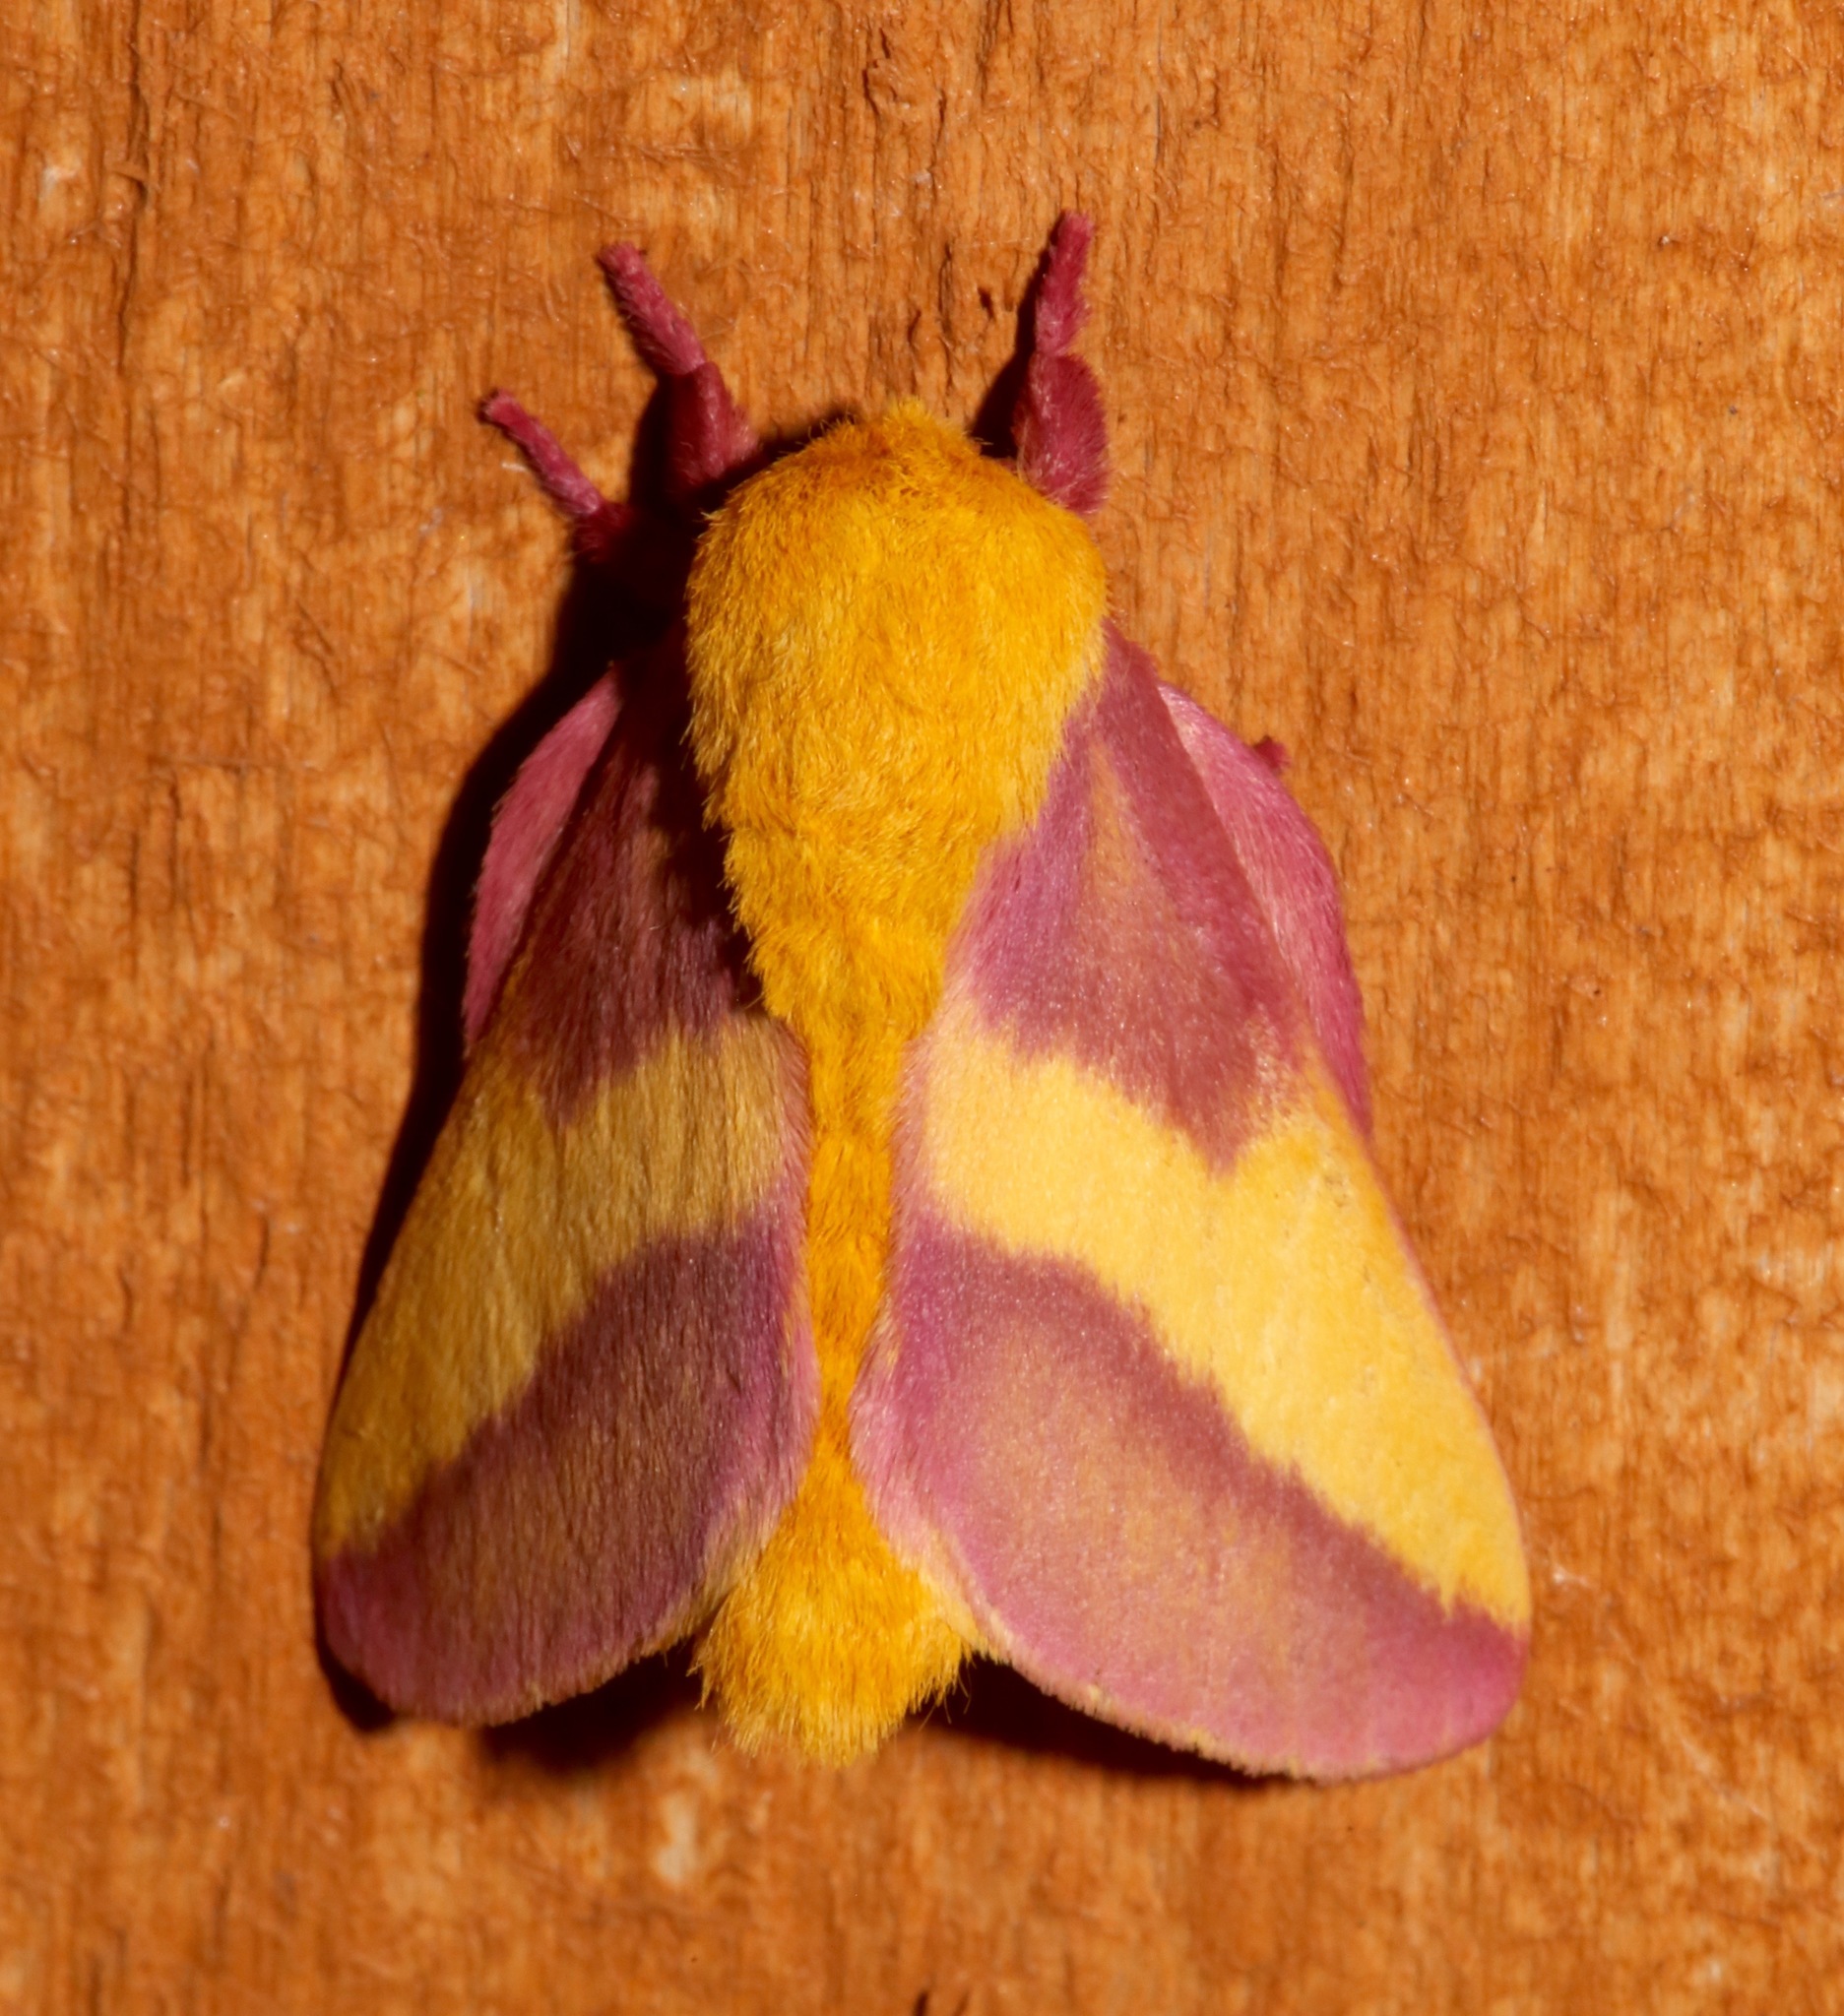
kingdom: Animalia
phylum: Arthropoda
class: Insecta
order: Lepidoptera
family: Saturniidae
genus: Dryocampa
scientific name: Dryocampa rubicunda
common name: Rosy maple moth
